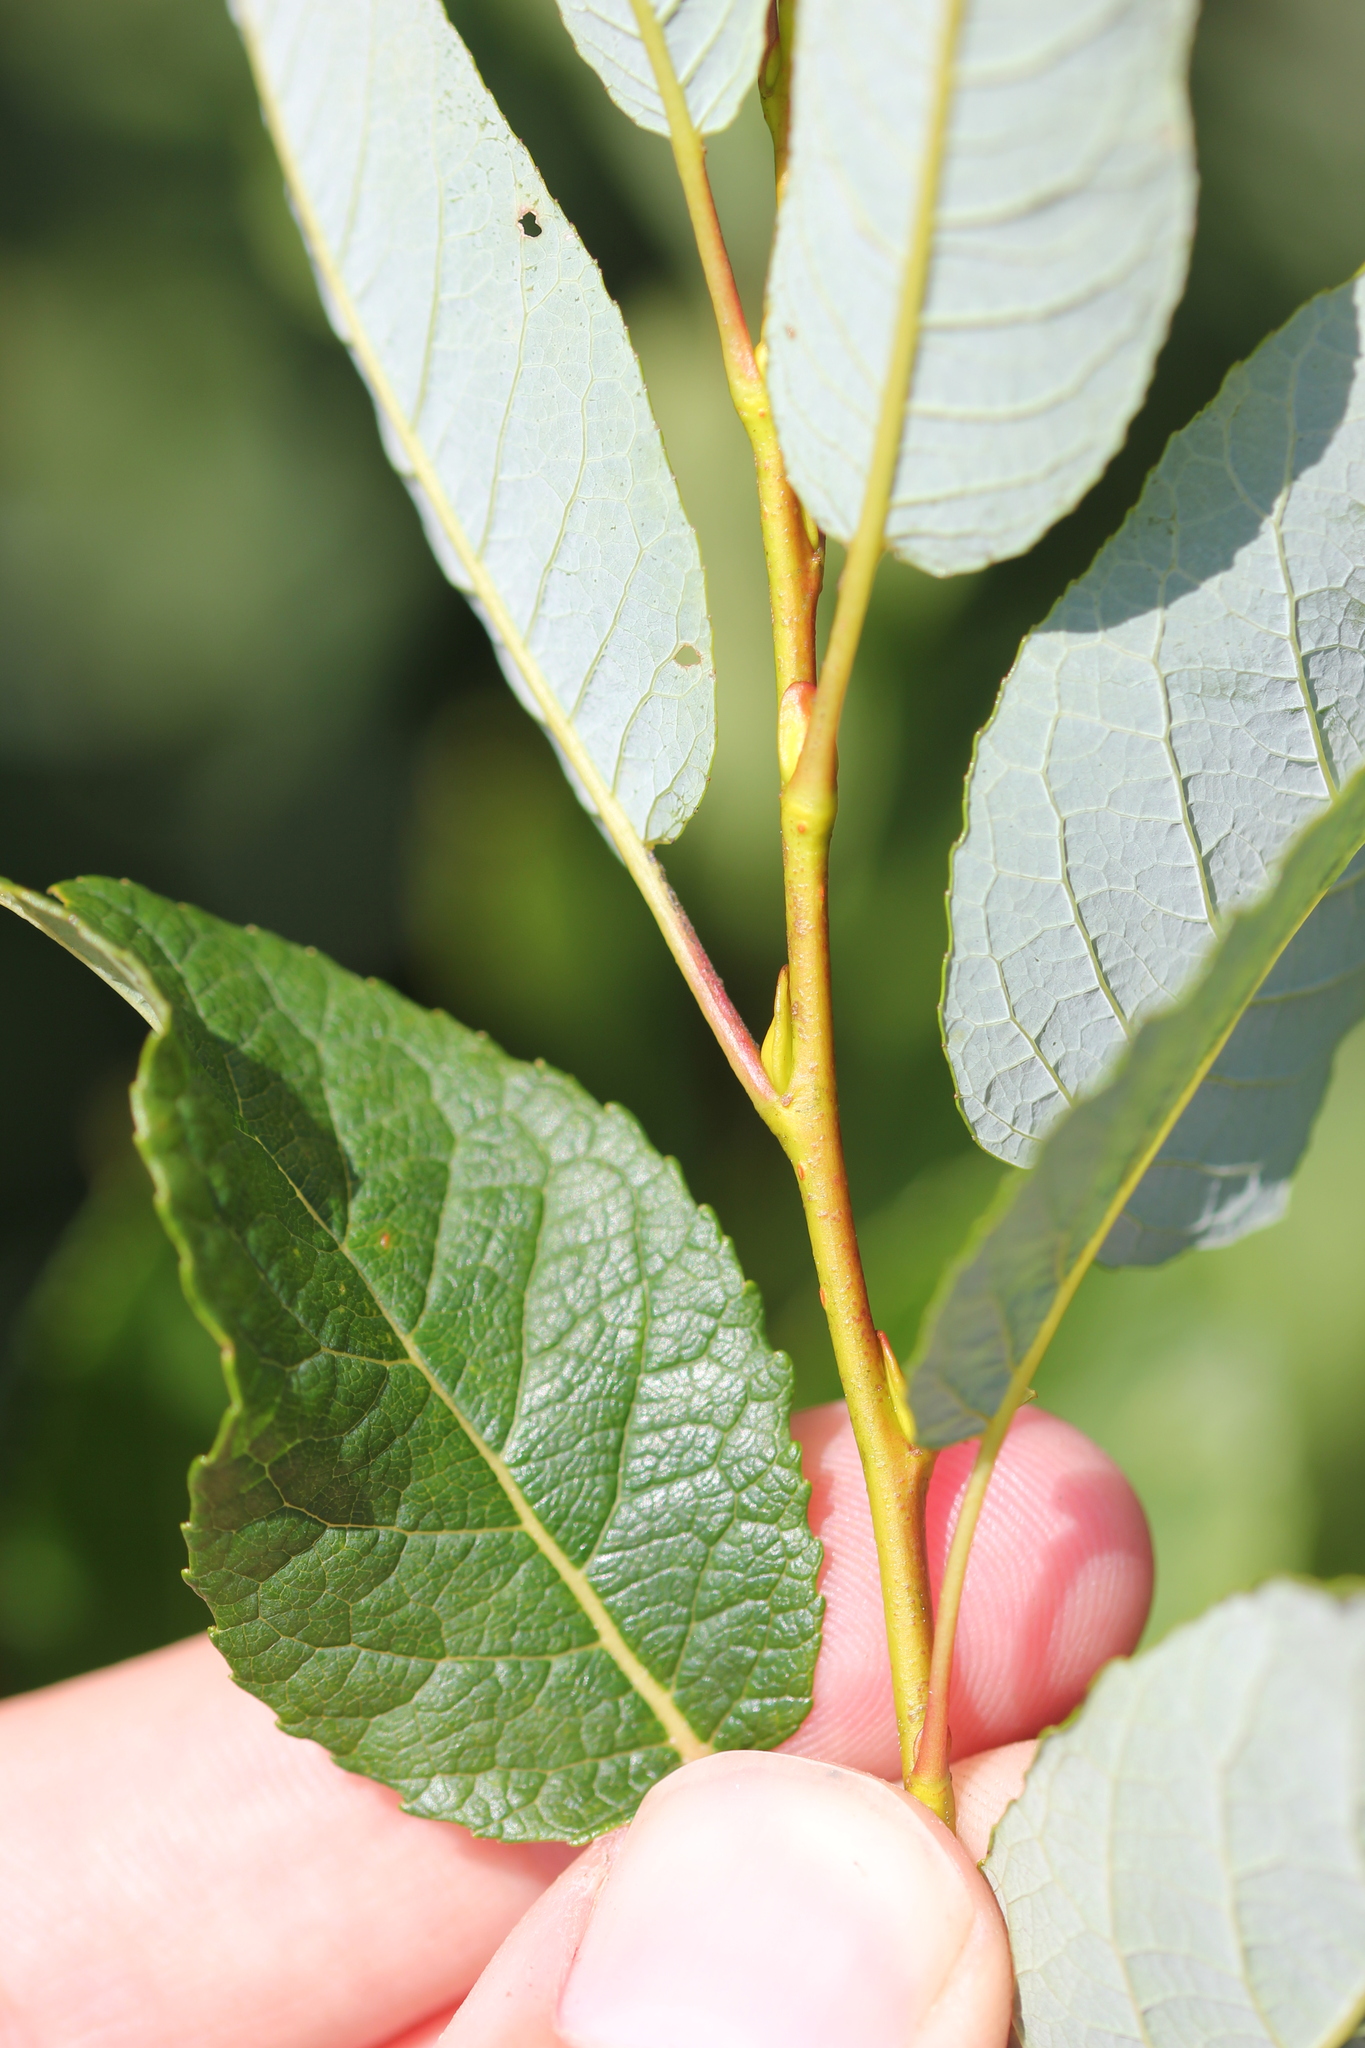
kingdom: Plantae
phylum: Tracheophyta
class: Magnoliopsida
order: Malpighiales
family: Salicaceae
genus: Salix
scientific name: Salix pyrifolia
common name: Balsam willow
